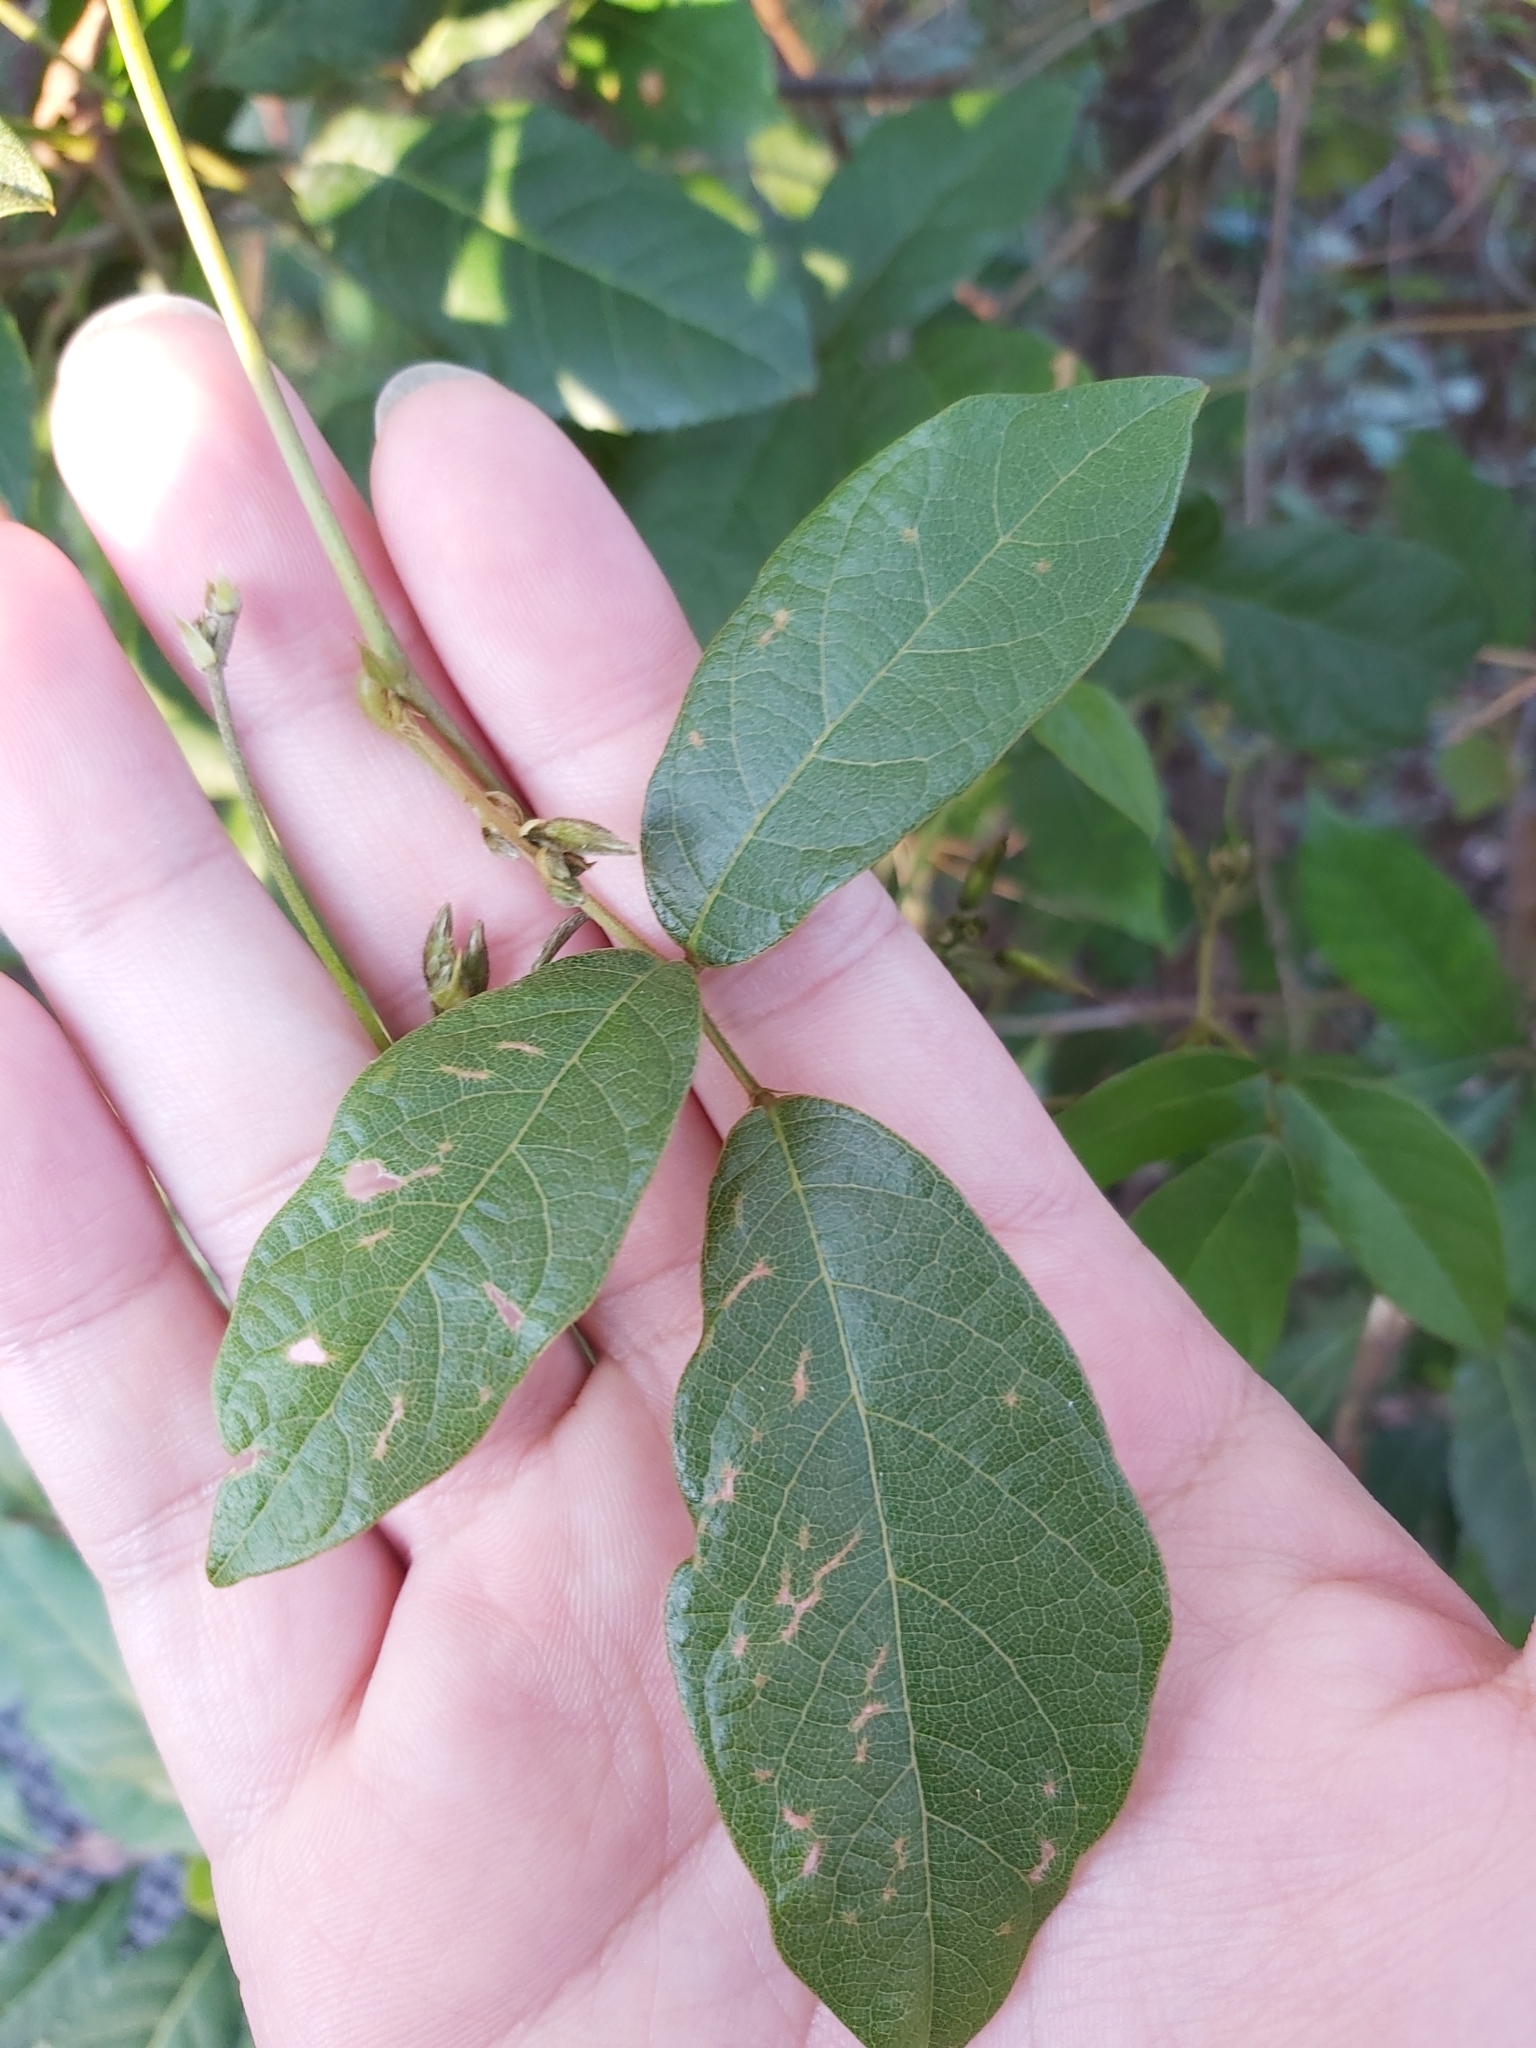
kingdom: Plantae
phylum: Tracheophyta
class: Magnoliopsida
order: Fabales
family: Fabaceae
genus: Kennedia
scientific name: Kennedia rubicunda
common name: Red kennedy-pea
